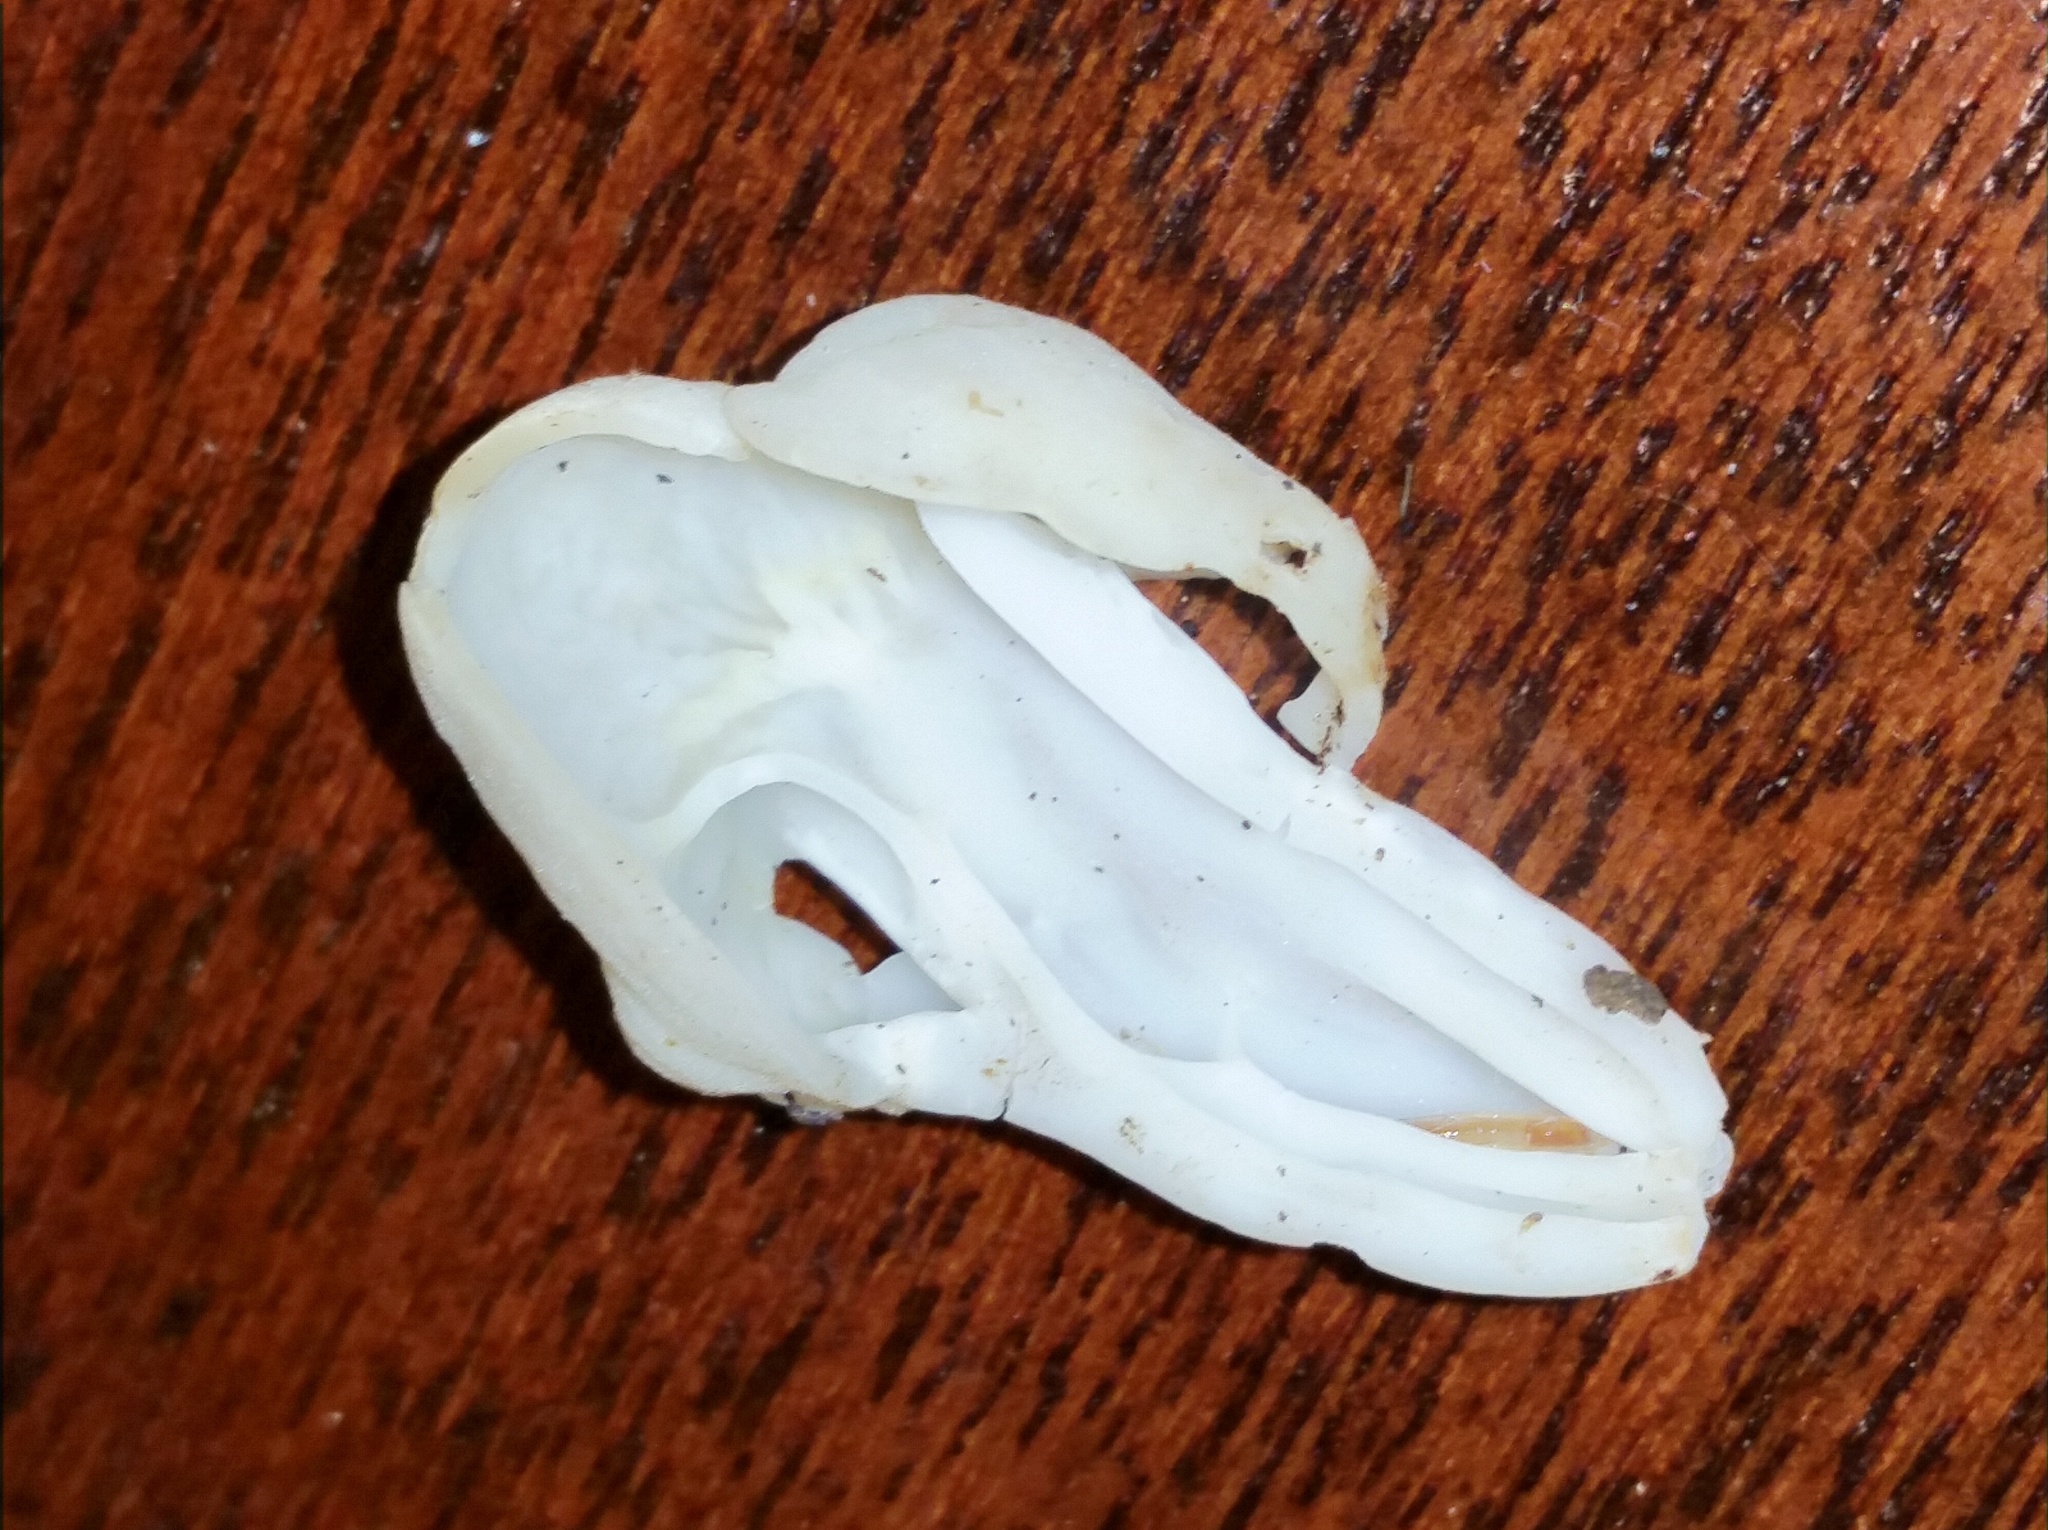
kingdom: Fungi
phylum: Ascomycota
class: Pezizomycetes
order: Pezizales
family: Helvellaceae
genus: Helvella
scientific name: Helvella crispa
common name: White saddle
